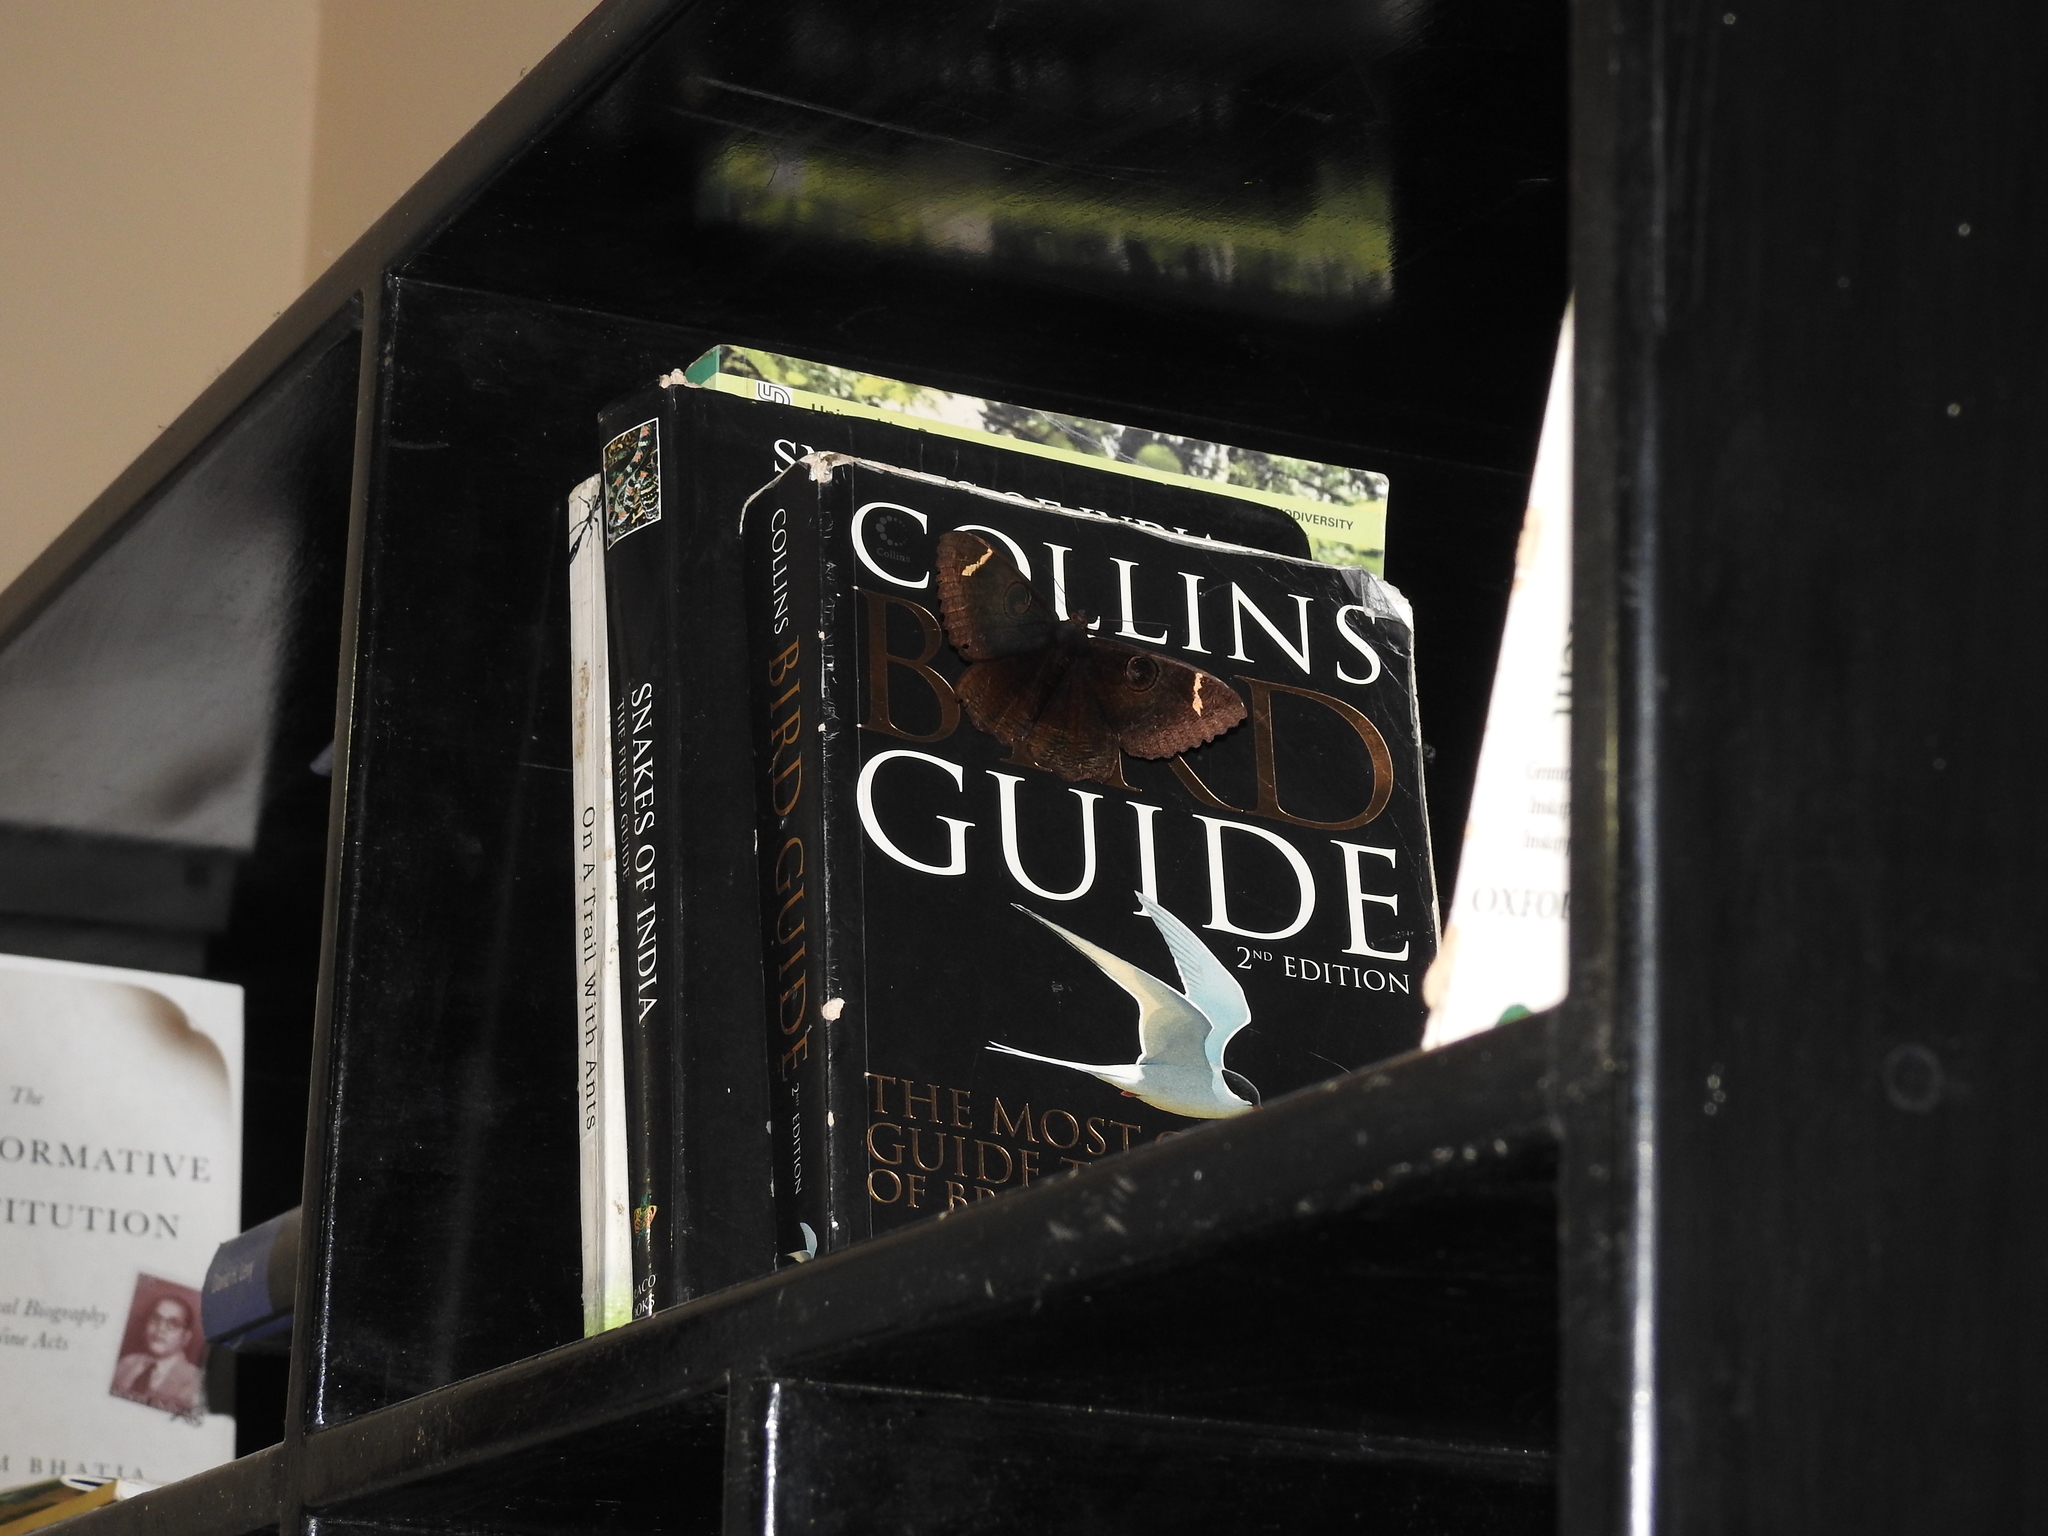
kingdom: Animalia
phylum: Arthropoda
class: Insecta
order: Lepidoptera
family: Erebidae
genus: Erebus
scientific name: Erebus hieroglyphica
